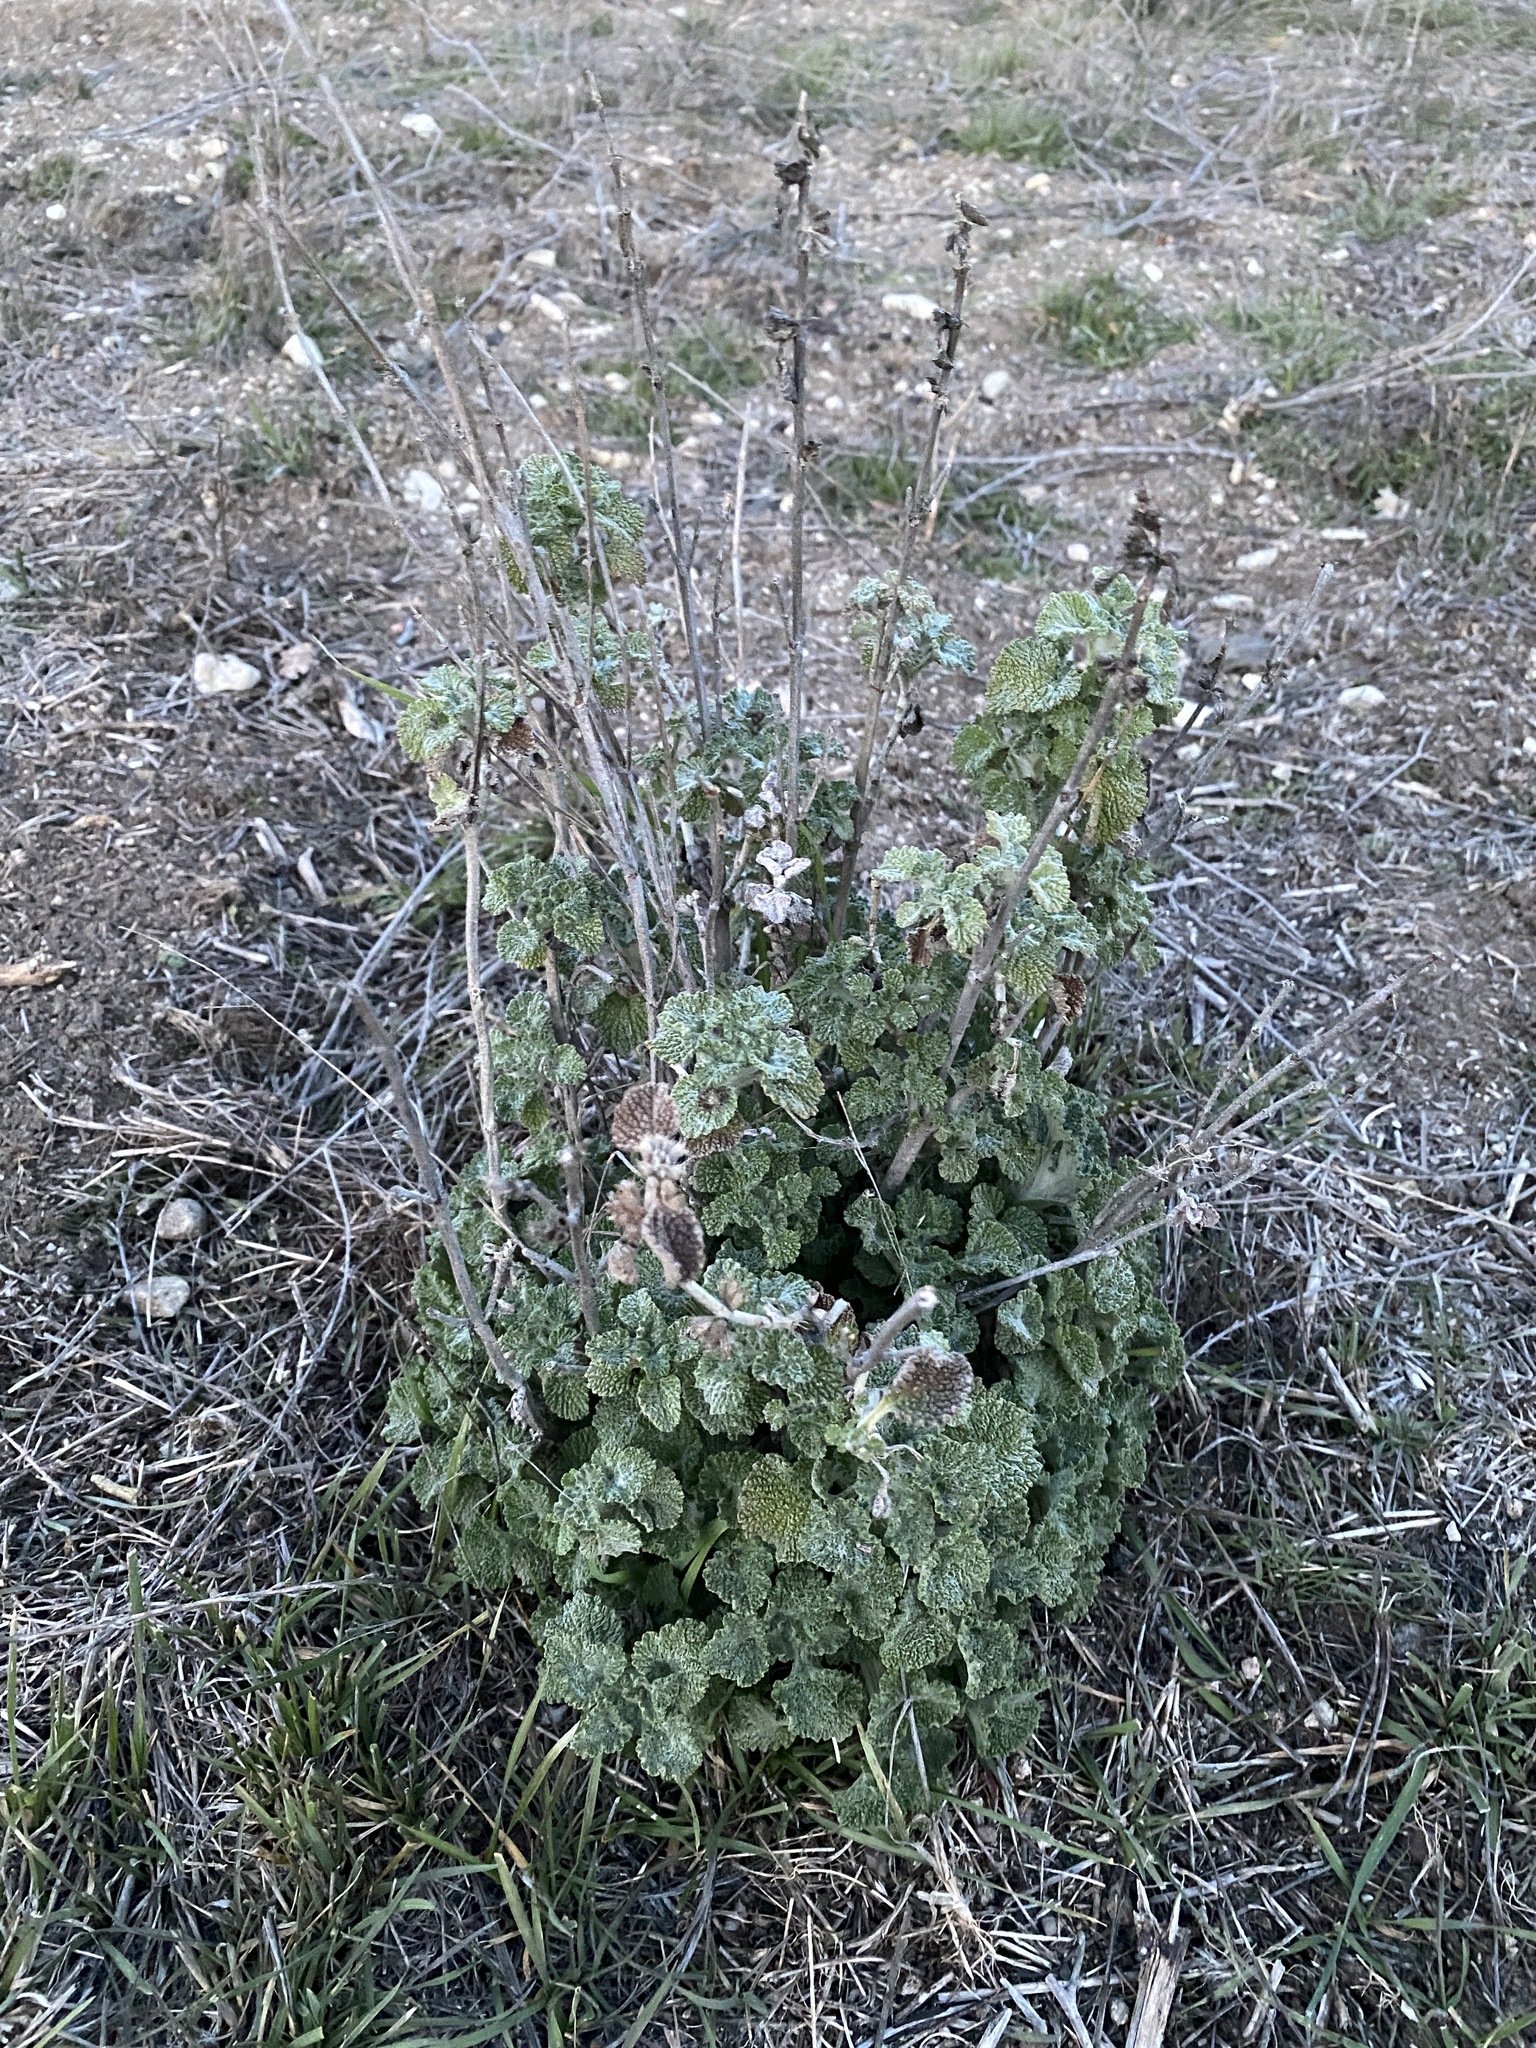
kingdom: Plantae
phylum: Tracheophyta
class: Magnoliopsida
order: Lamiales
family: Lamiaceae
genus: Marrubium
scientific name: Marrubium vulgare
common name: Horehound
